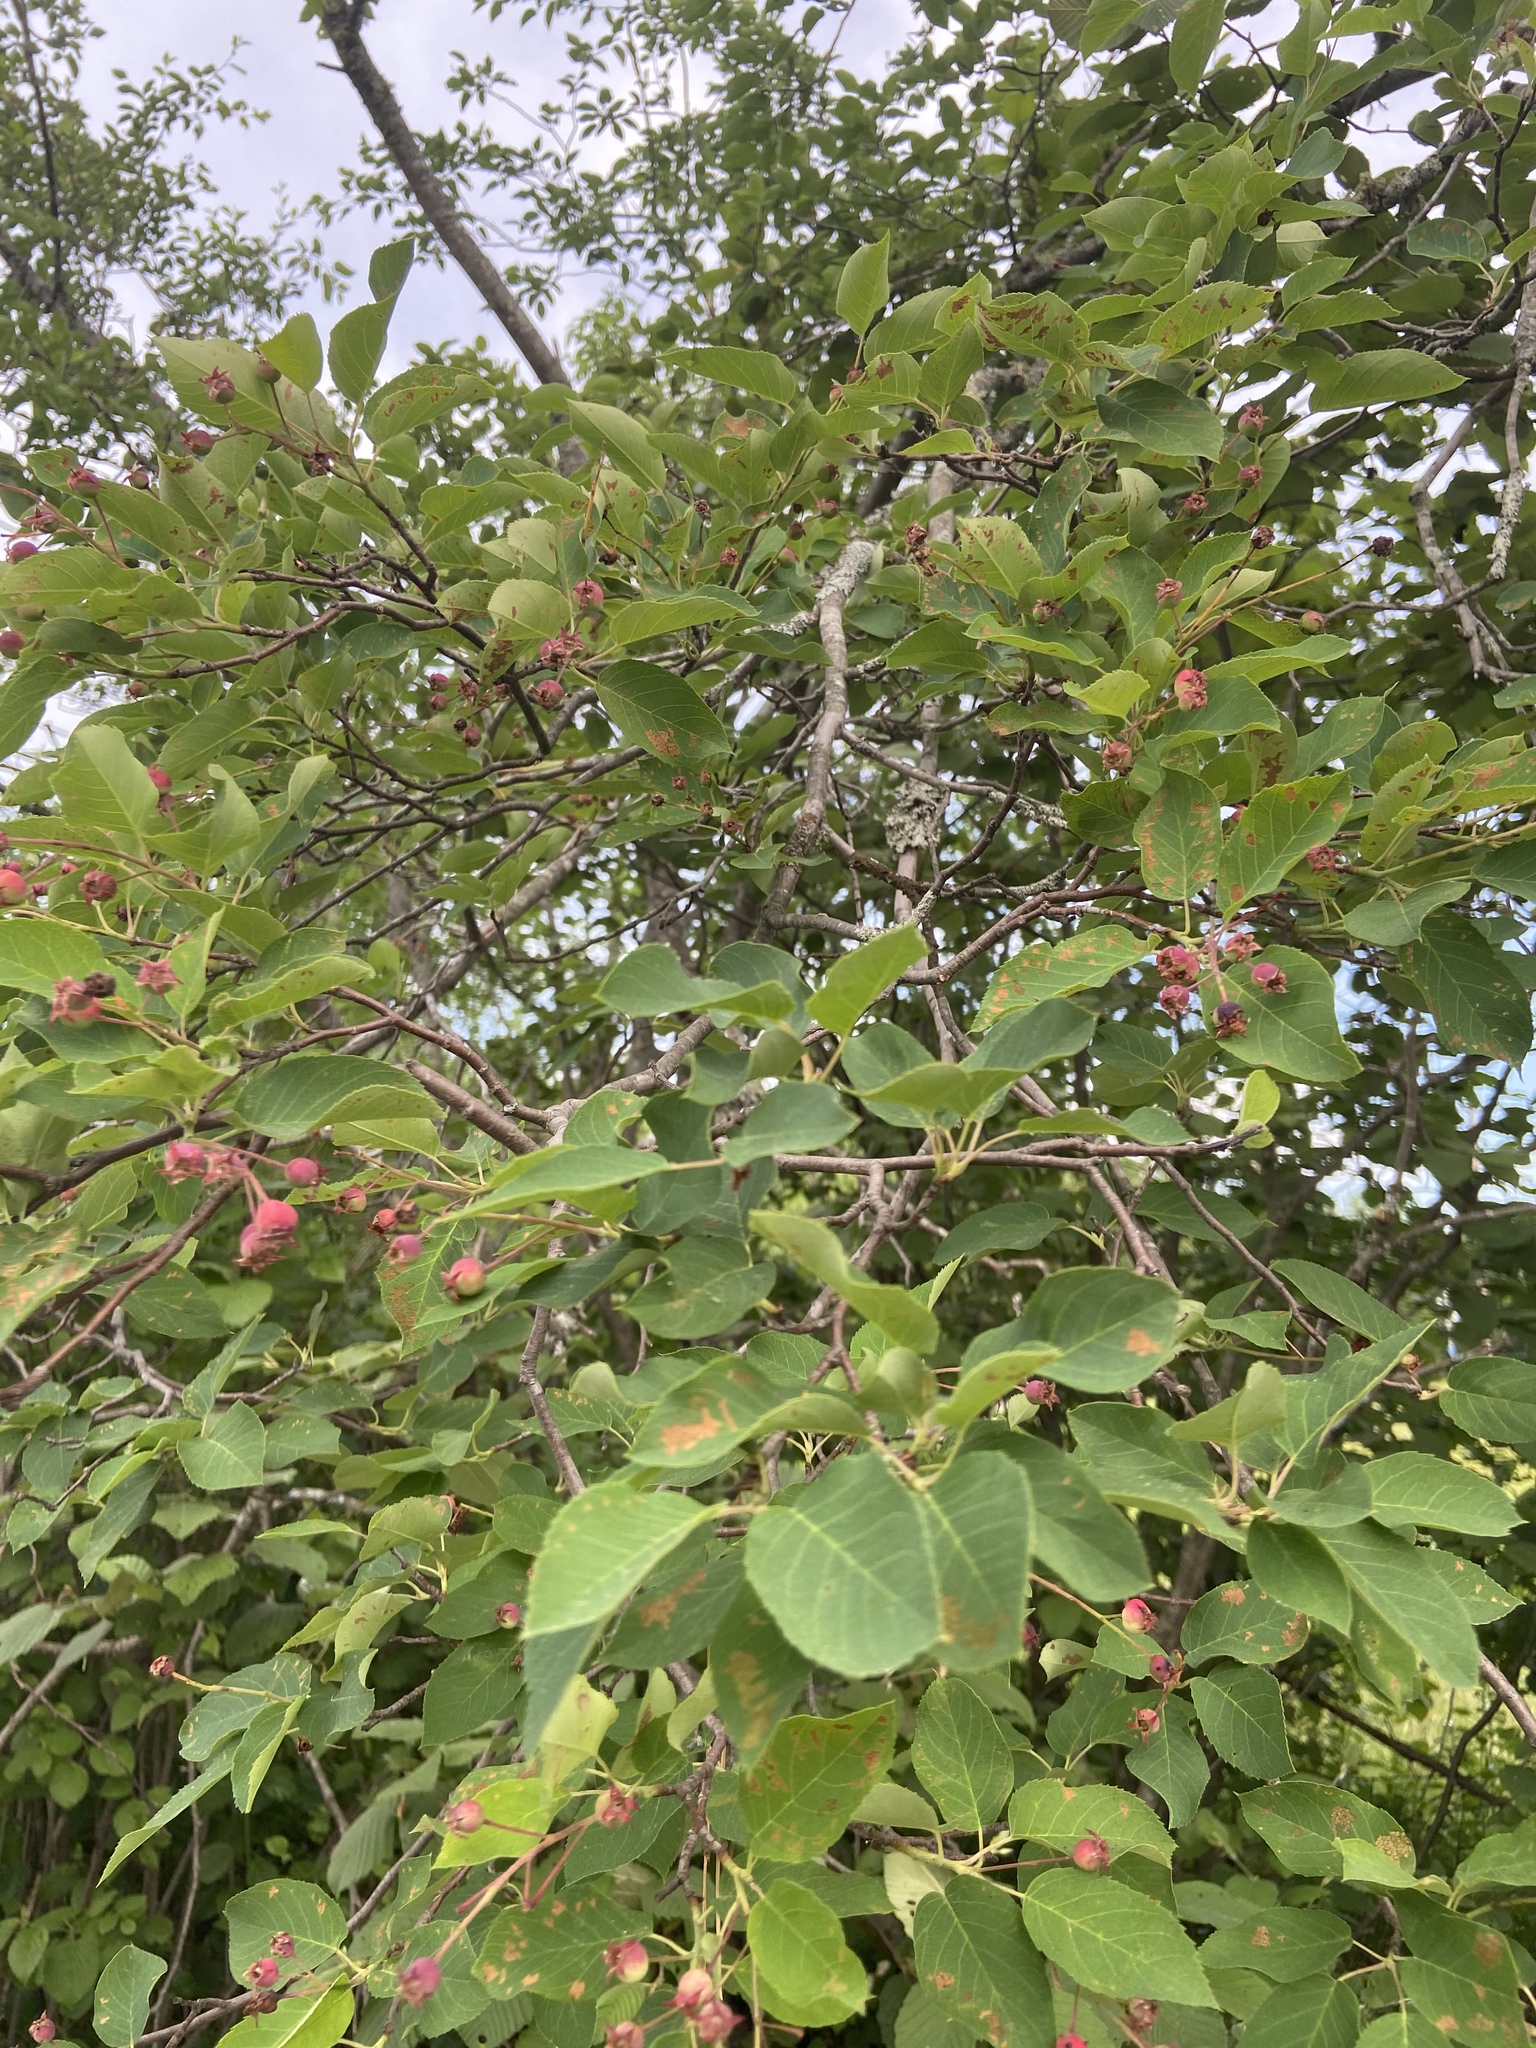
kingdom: Plantae
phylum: Tracheophyta
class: Magnoliopsida
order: Rosales
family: Rosaceae
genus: Amelanchier
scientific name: Amelanchier arborea
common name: Downy serviceberry
